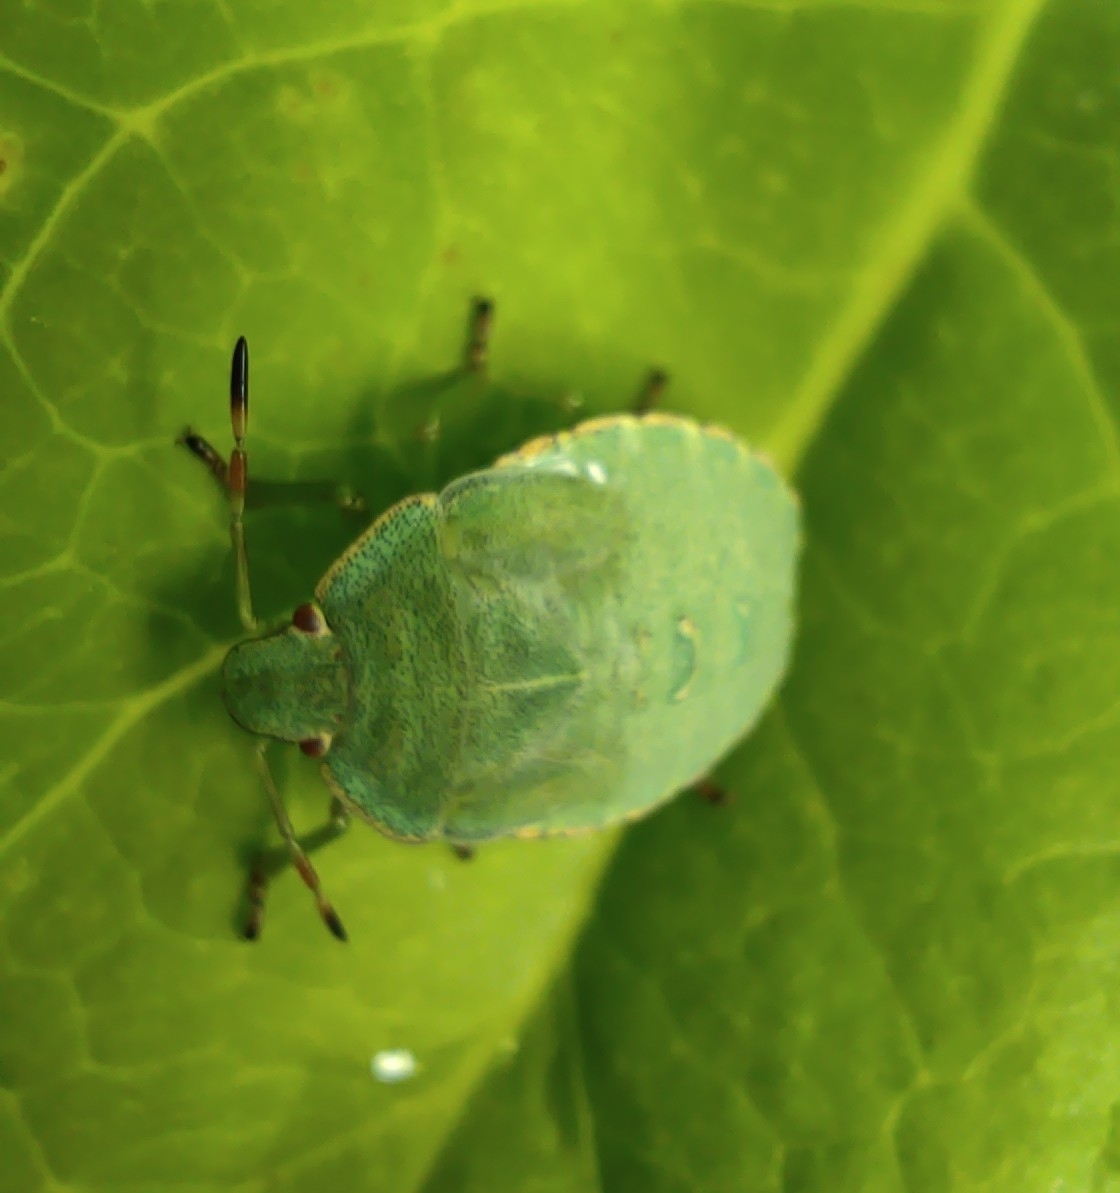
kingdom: Animalia
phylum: Arthropoda
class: Insecta
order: Hemiptera
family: Pentatomidae
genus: Palomena
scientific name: Palomena prasina
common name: Green shieldbug
